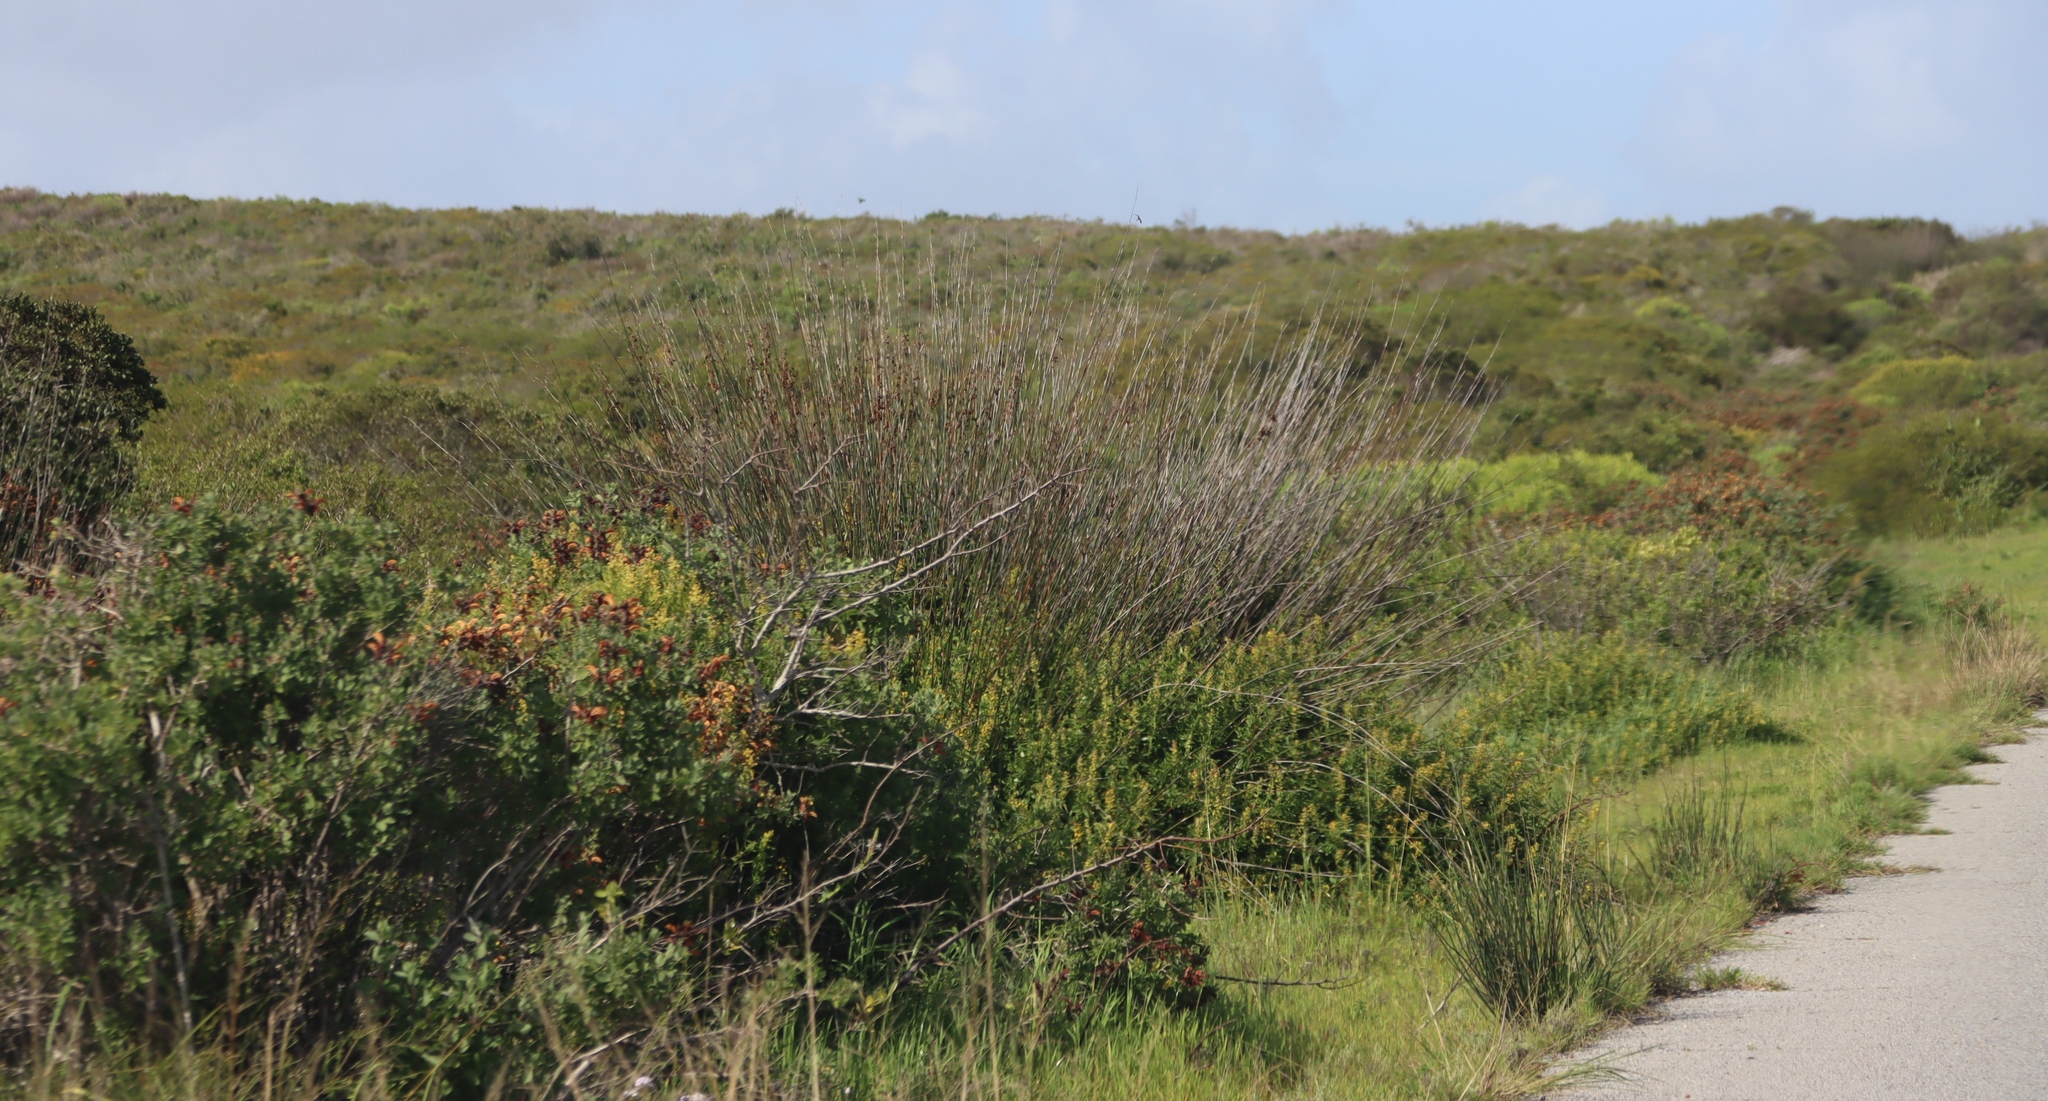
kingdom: Plantae
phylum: Tracheophyta
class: Liliopsida
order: Poales
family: Restionaceae
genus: Thamnochortus
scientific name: Thamnochortus spicigerus
